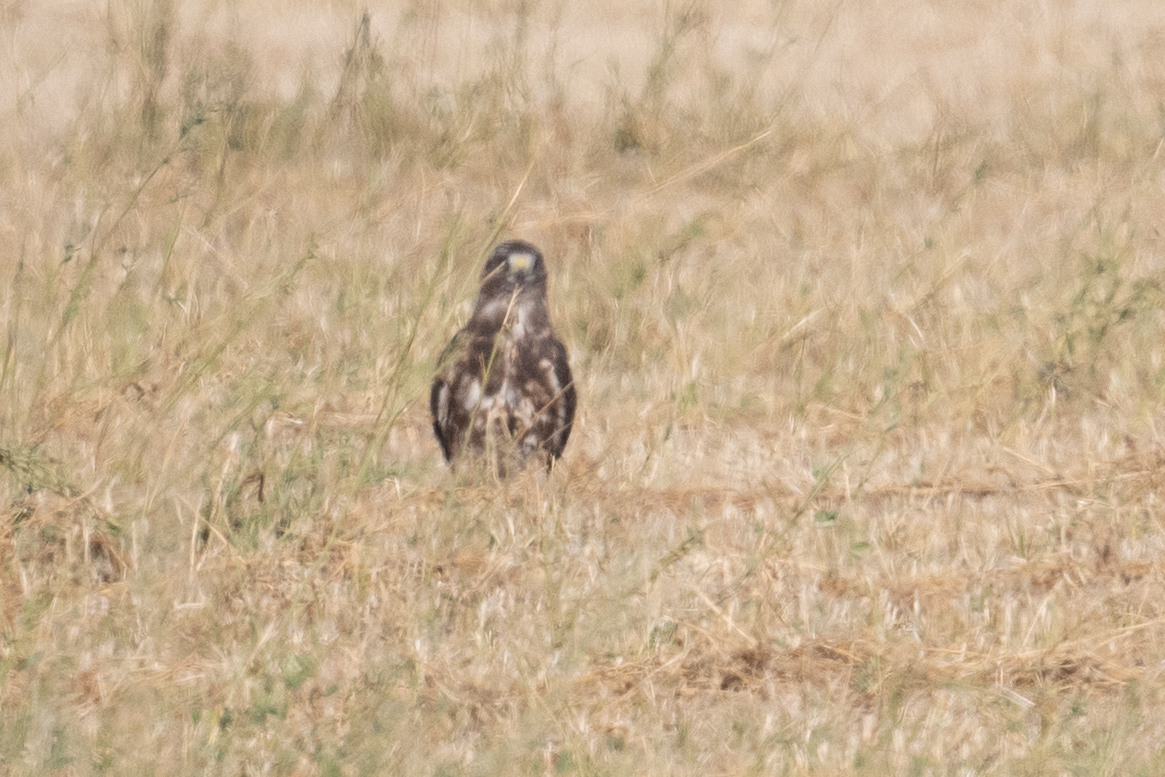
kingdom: Animalia
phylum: Chordata
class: Aves
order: Accipitriformes
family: Accipitridae
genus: Buteo
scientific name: Buteo swainsoni
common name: Swainson's hawk
